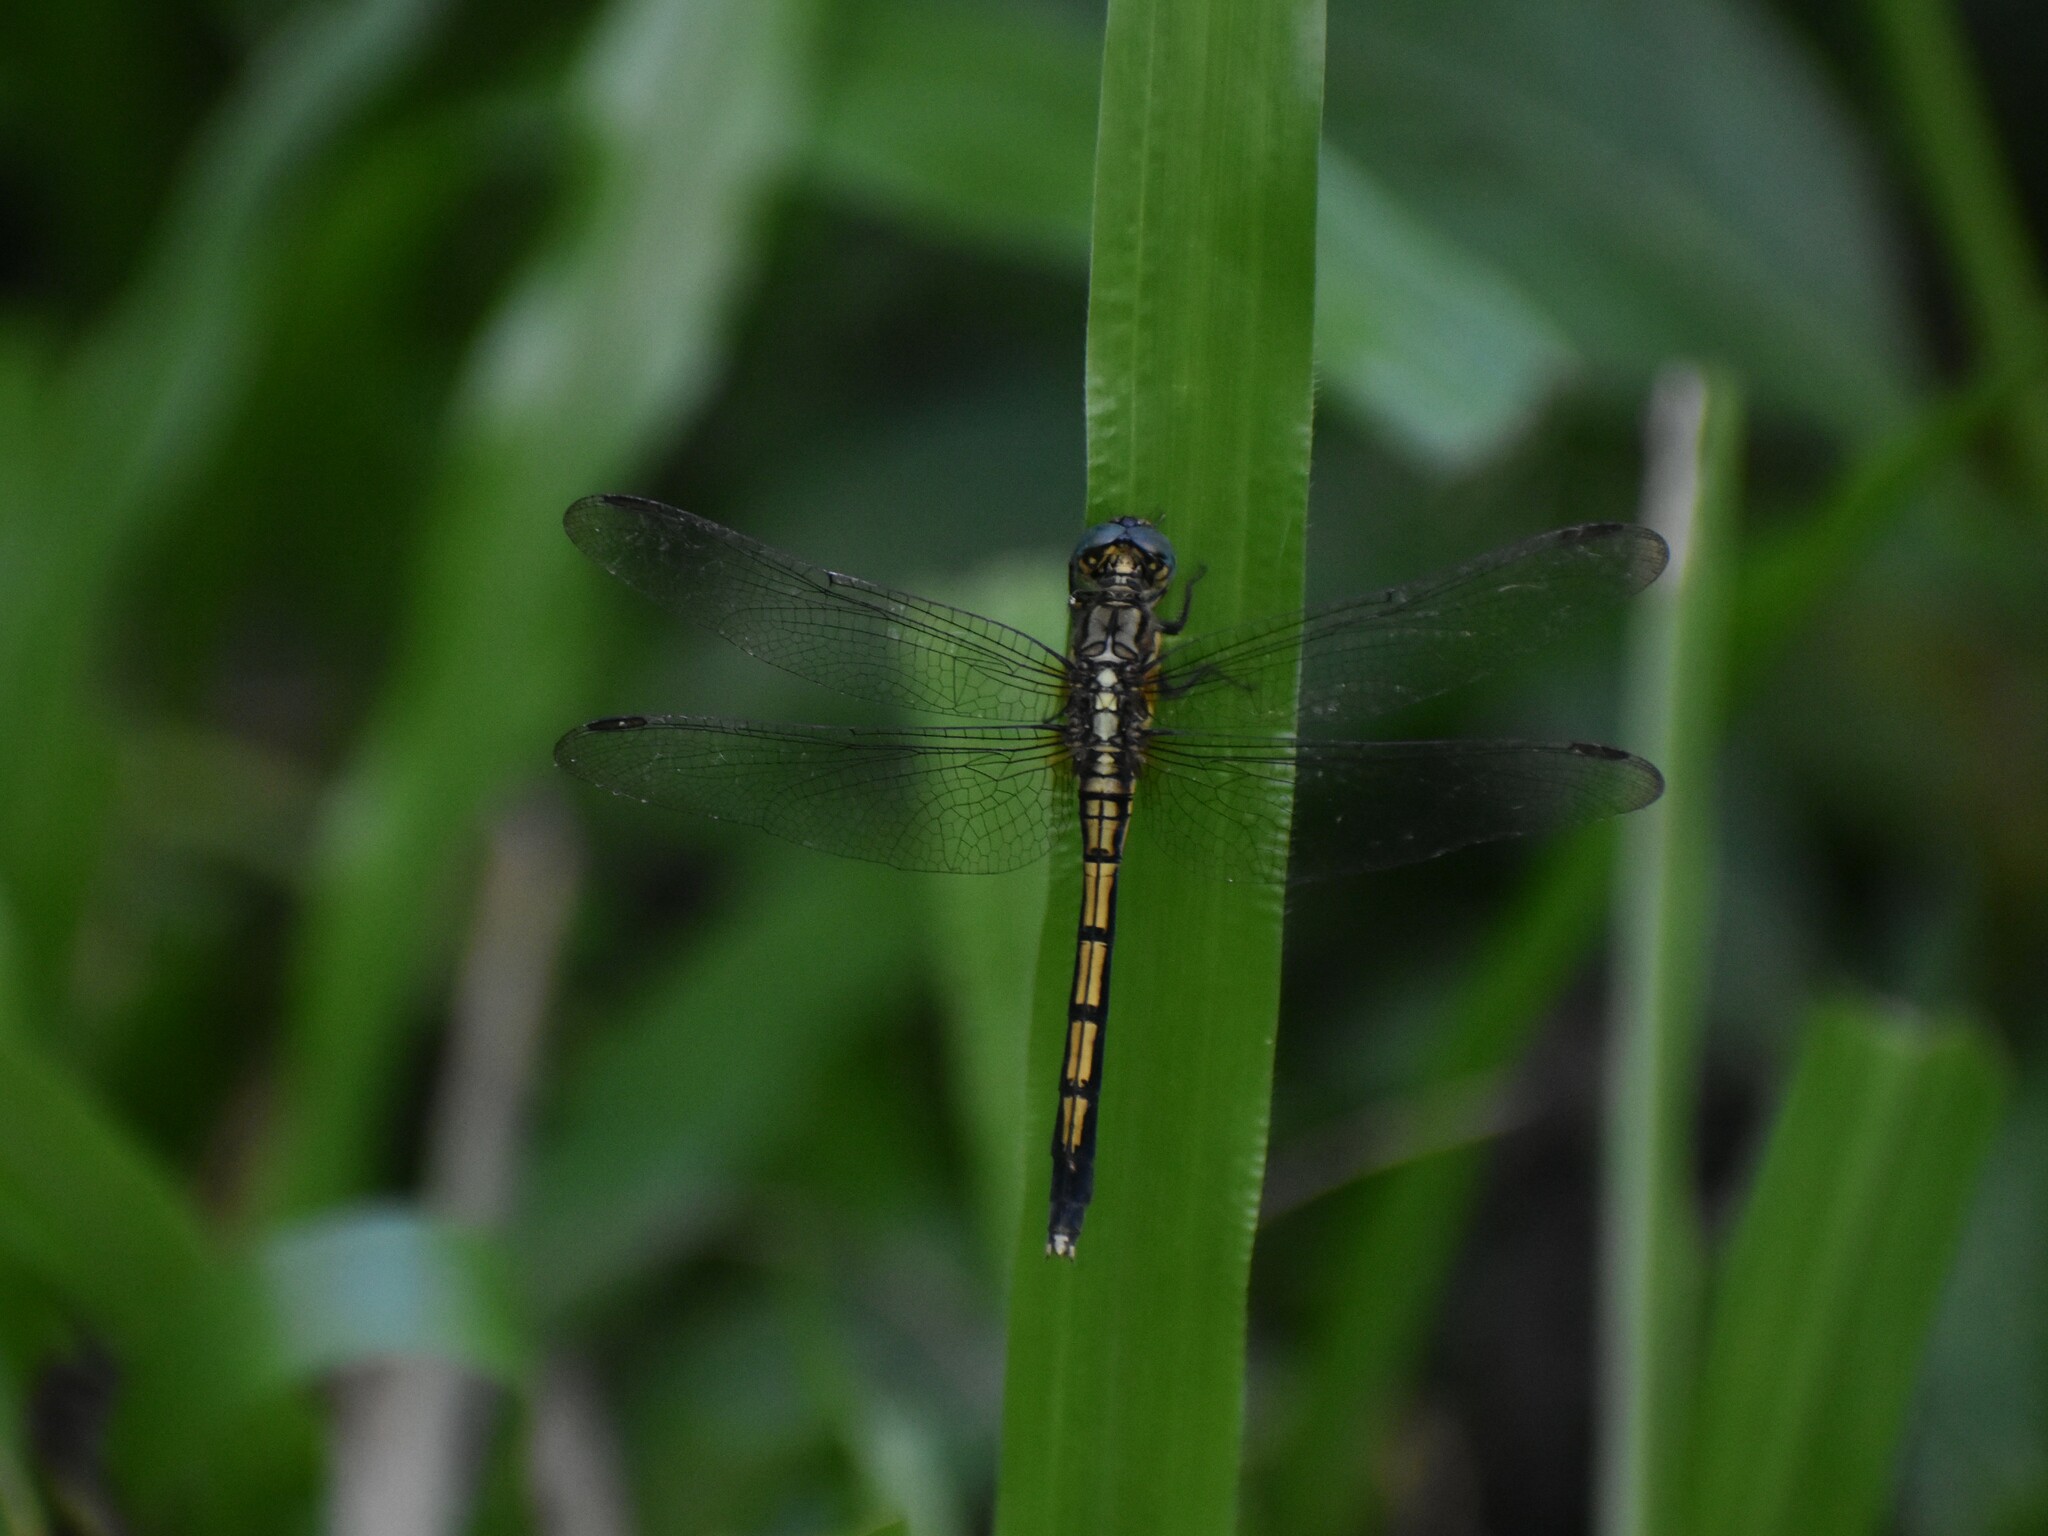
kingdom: Animalia
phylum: Arthropoda
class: Insecta
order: Odonata
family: Libellulidae
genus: Orthetrum
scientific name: Orthetrum luzonicum
